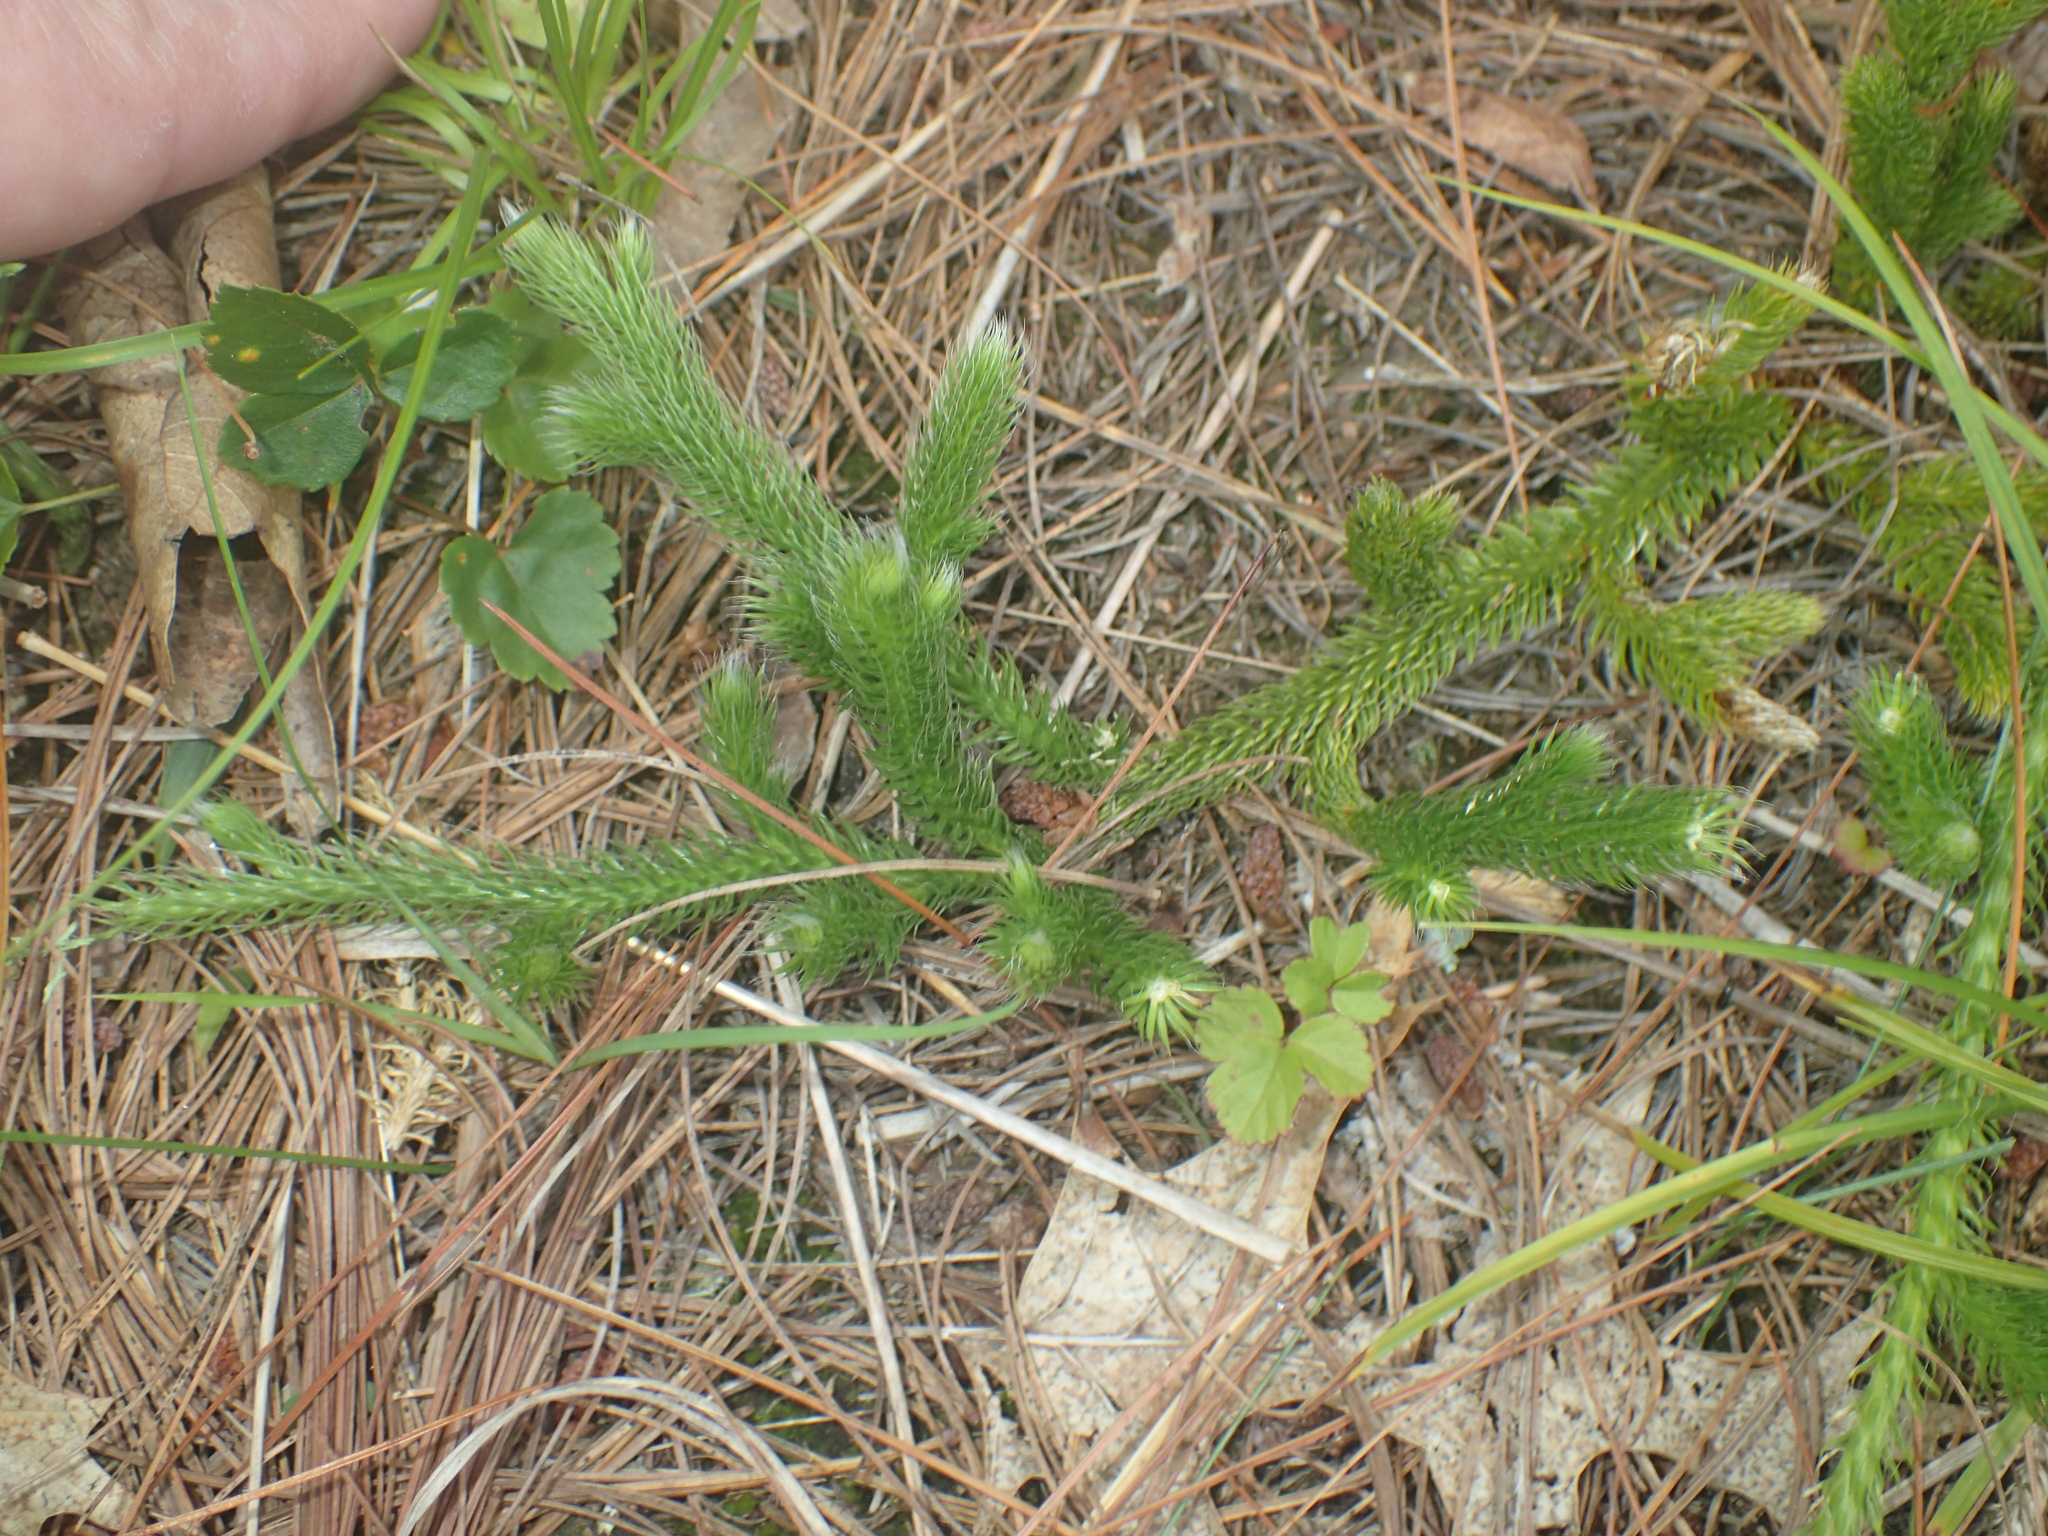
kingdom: Plantae
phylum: Tracheophyta
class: Lycopodiopsida
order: Lycopodiales
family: Lycopodiaceae
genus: Lycopodium
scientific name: Lycopodium clavatum
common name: Stag's-horn clubmoss
